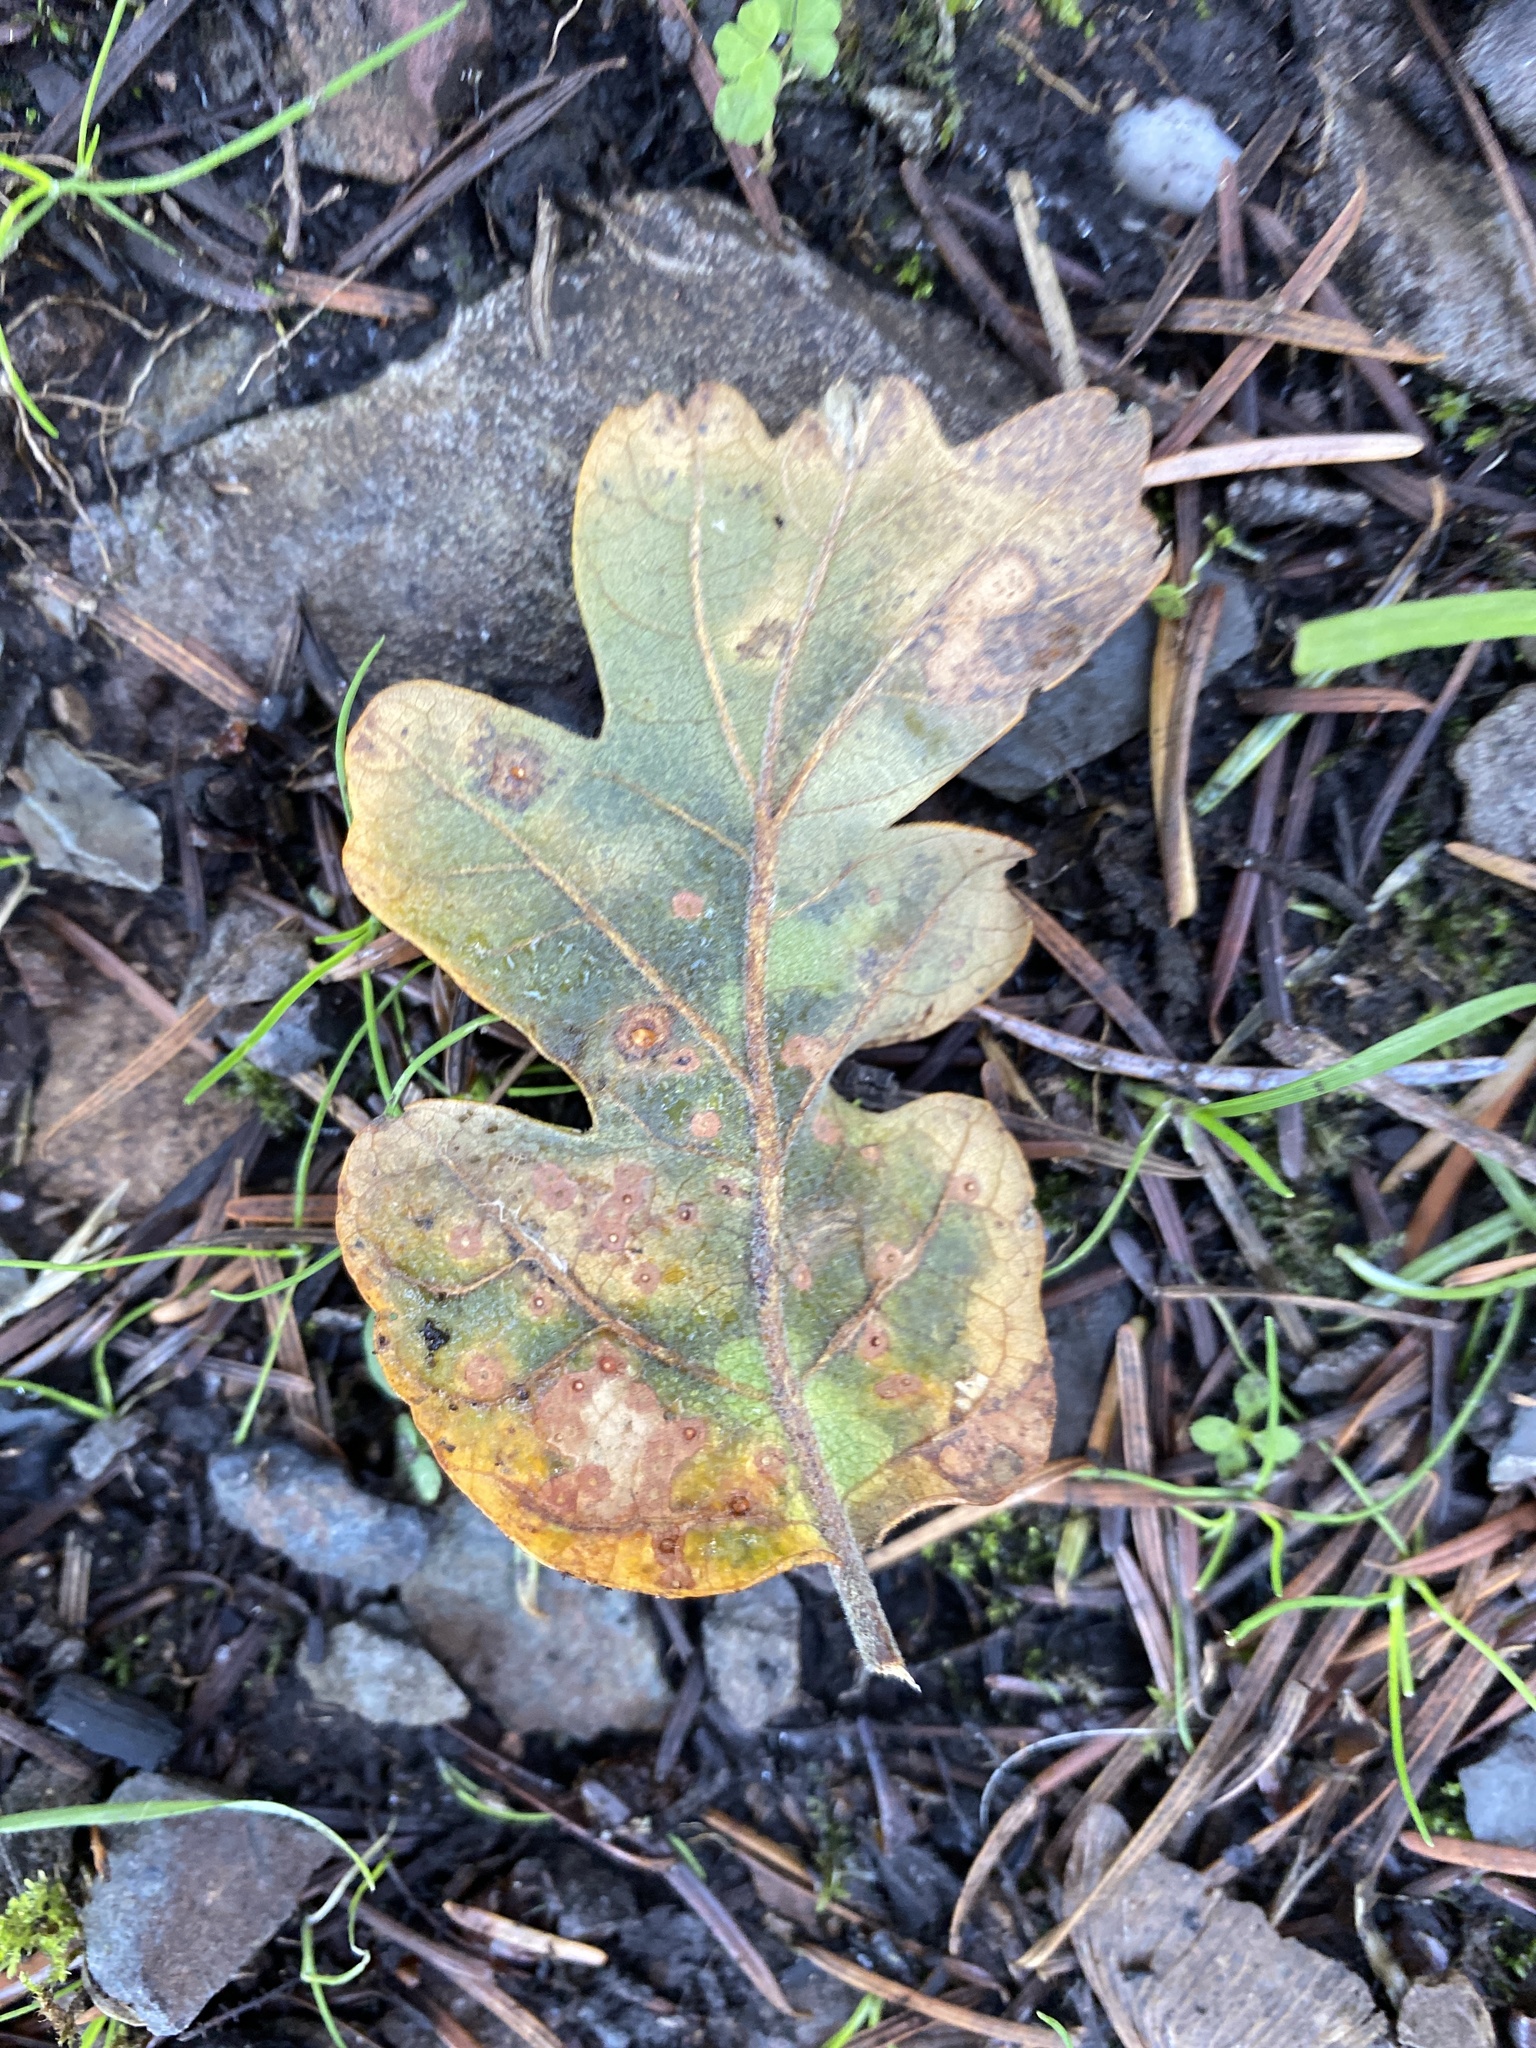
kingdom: Plantae
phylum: Tracheophyta
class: Magnoliopsida
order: Fagales
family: Fagaceae
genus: Quercus
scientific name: Quercus garryana
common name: Garry oak
